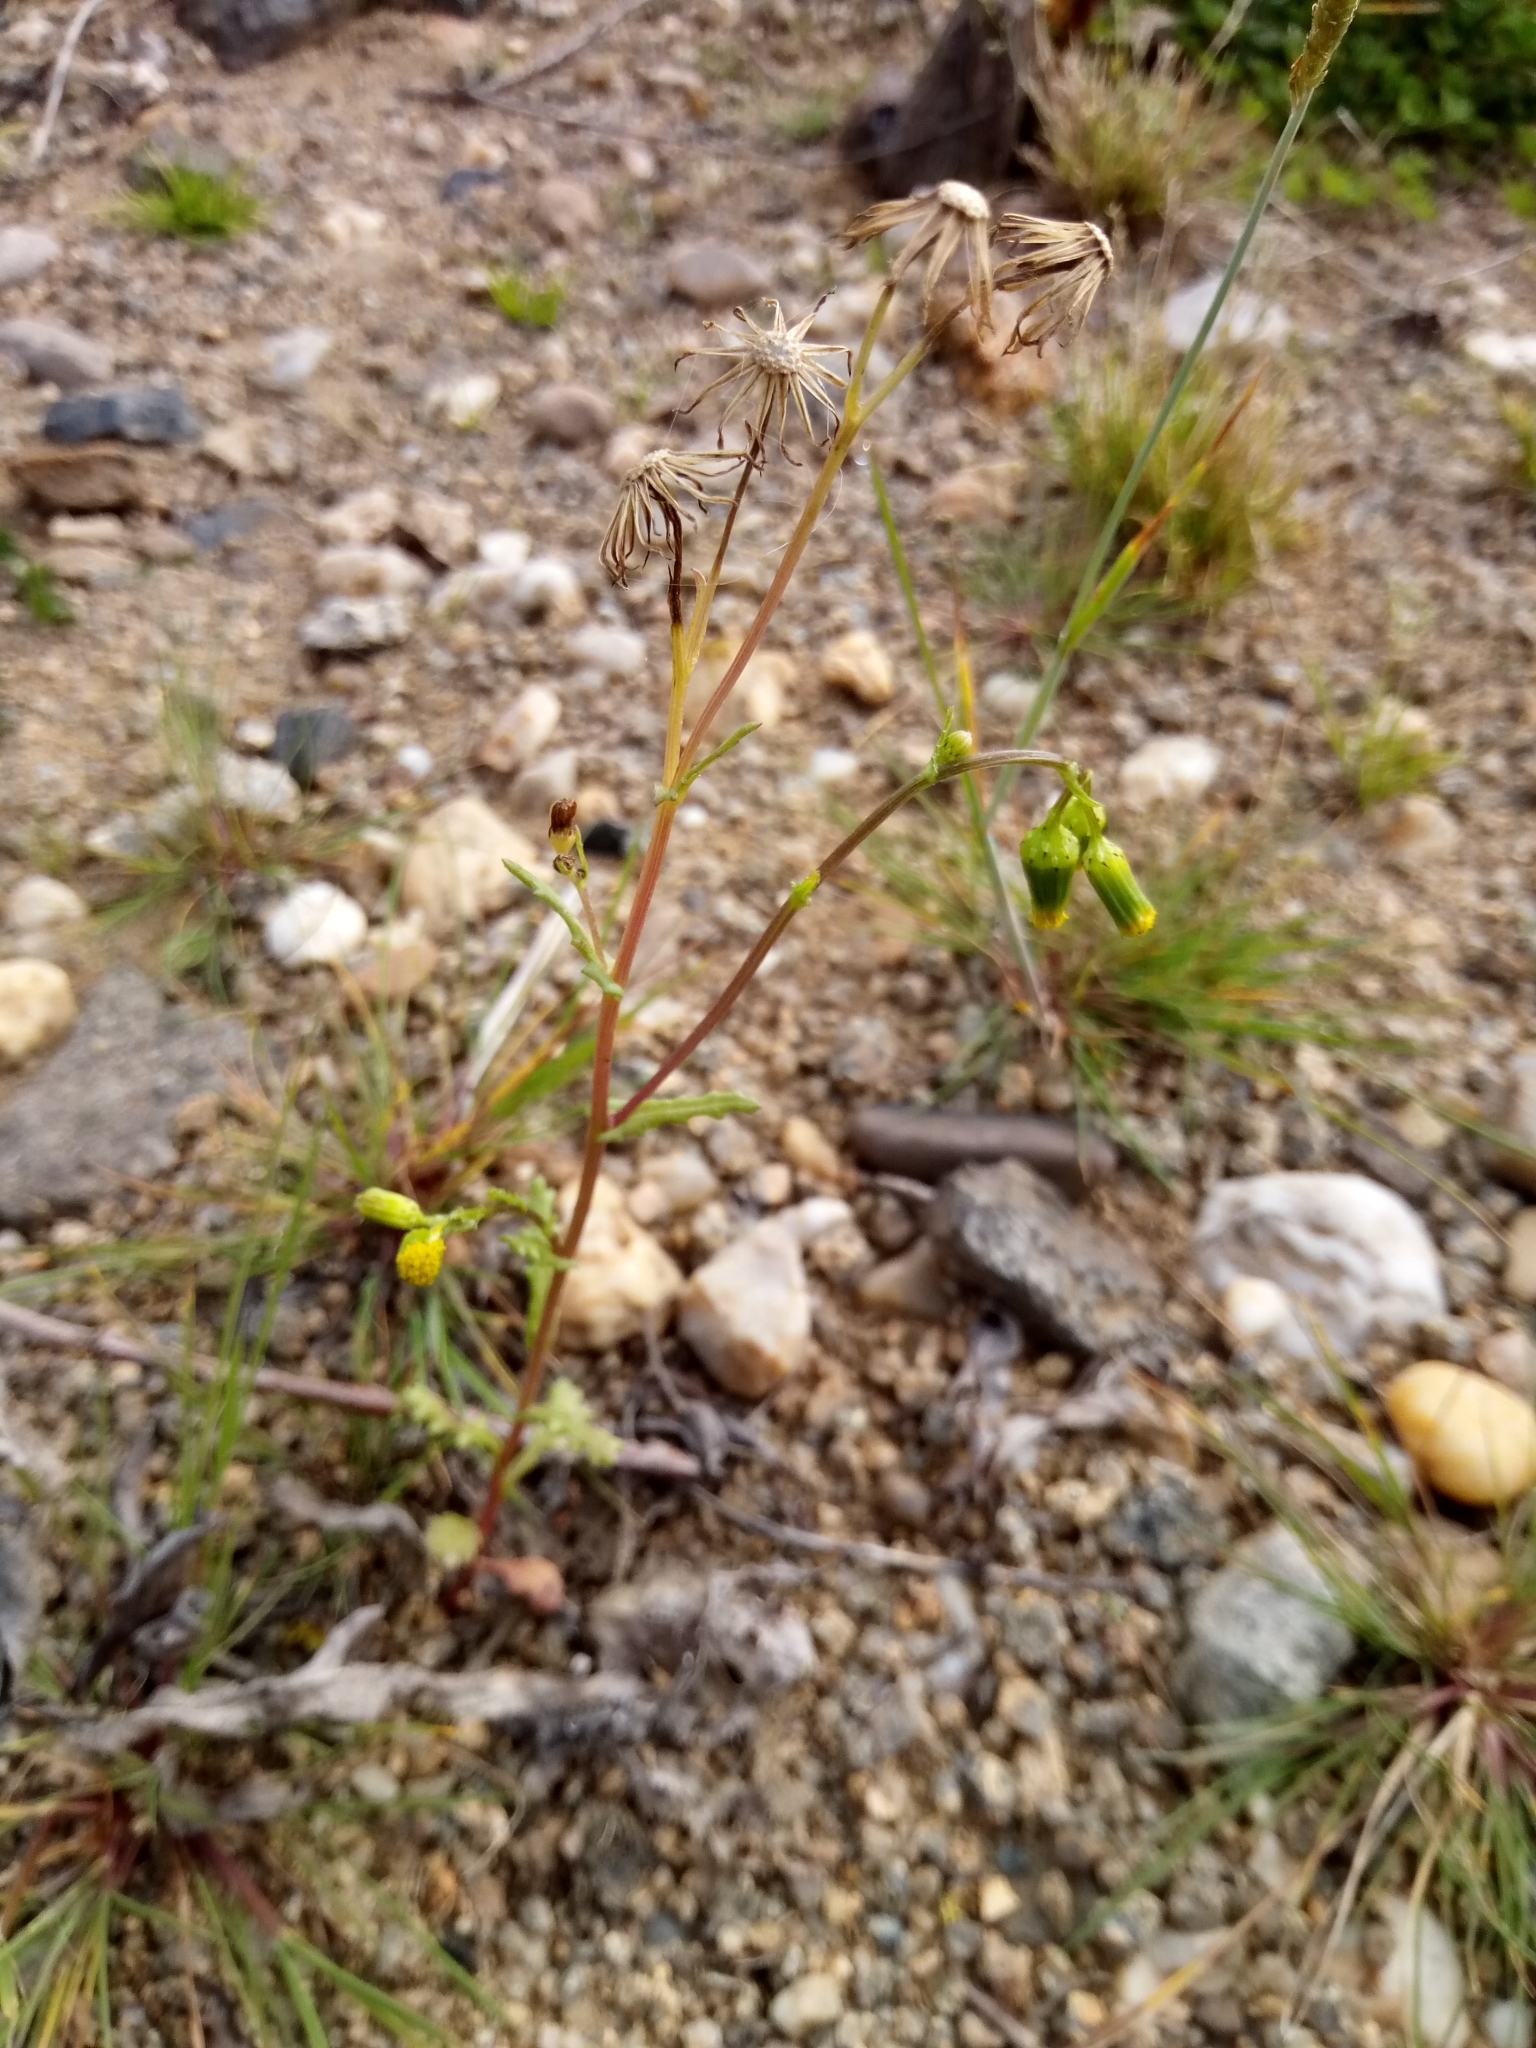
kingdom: Plantae
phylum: Tracheophyta
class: Magnoliopsida
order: Asterales
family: Asteraceae
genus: Senecio
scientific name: Senecio vulgaris
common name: Old-man-in-the-spring
